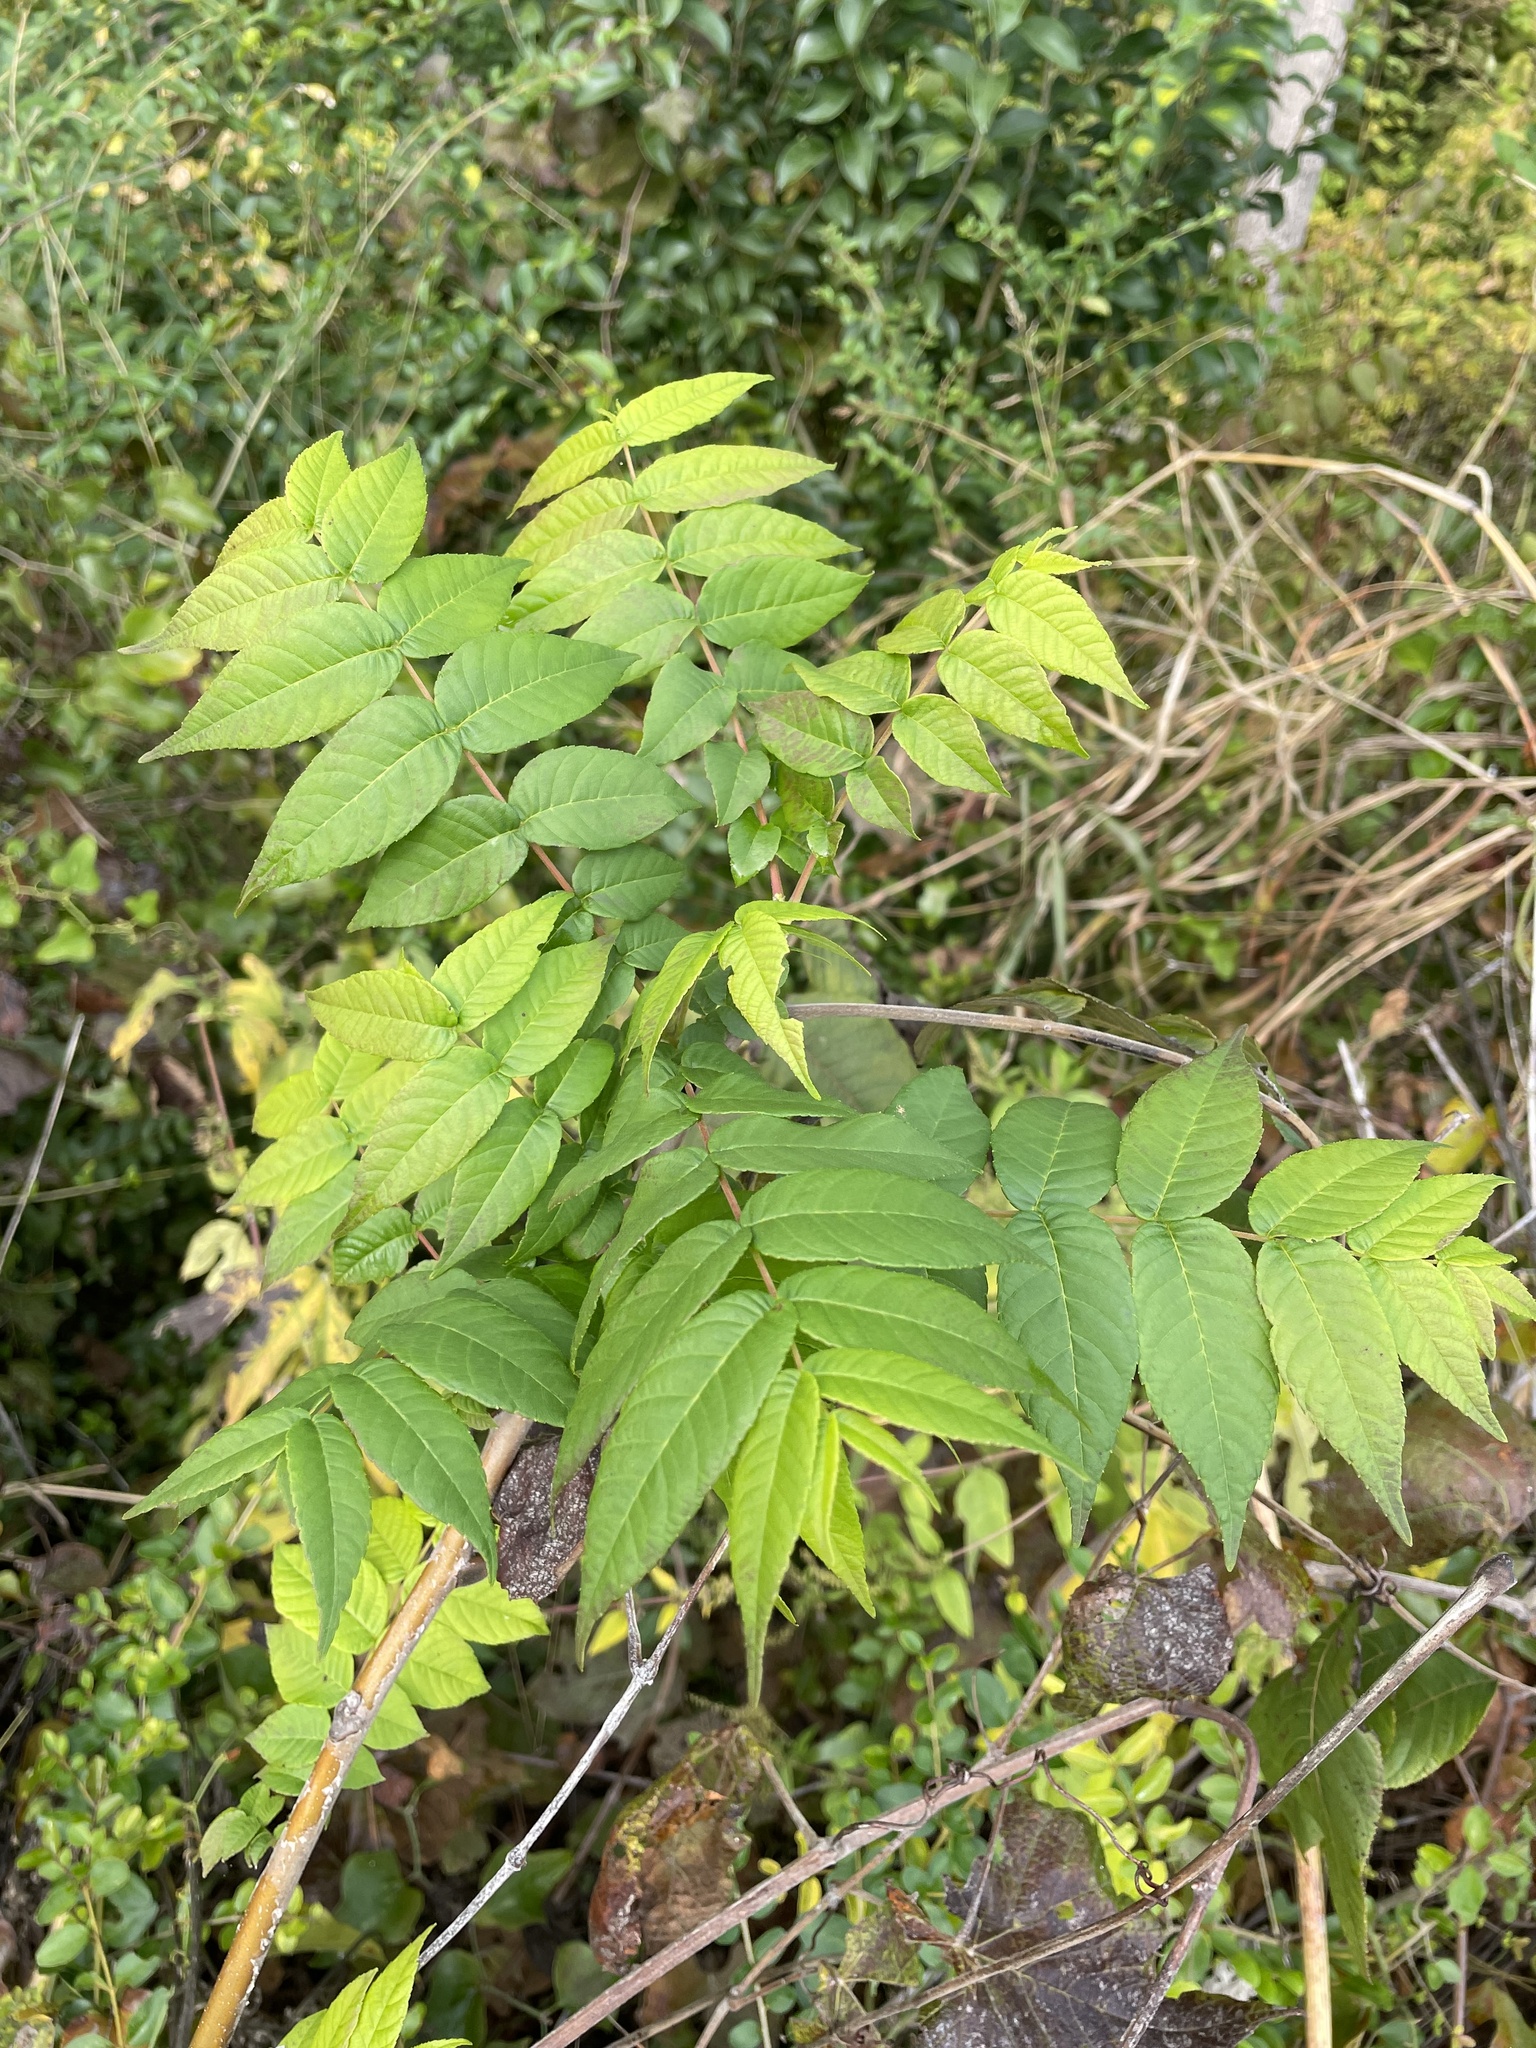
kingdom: Plantae
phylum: Tracheophyta
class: Magnoliopsida
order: Fagales
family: Juglandaceae
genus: Juglans
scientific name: Juglans nigra
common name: Black walnut
